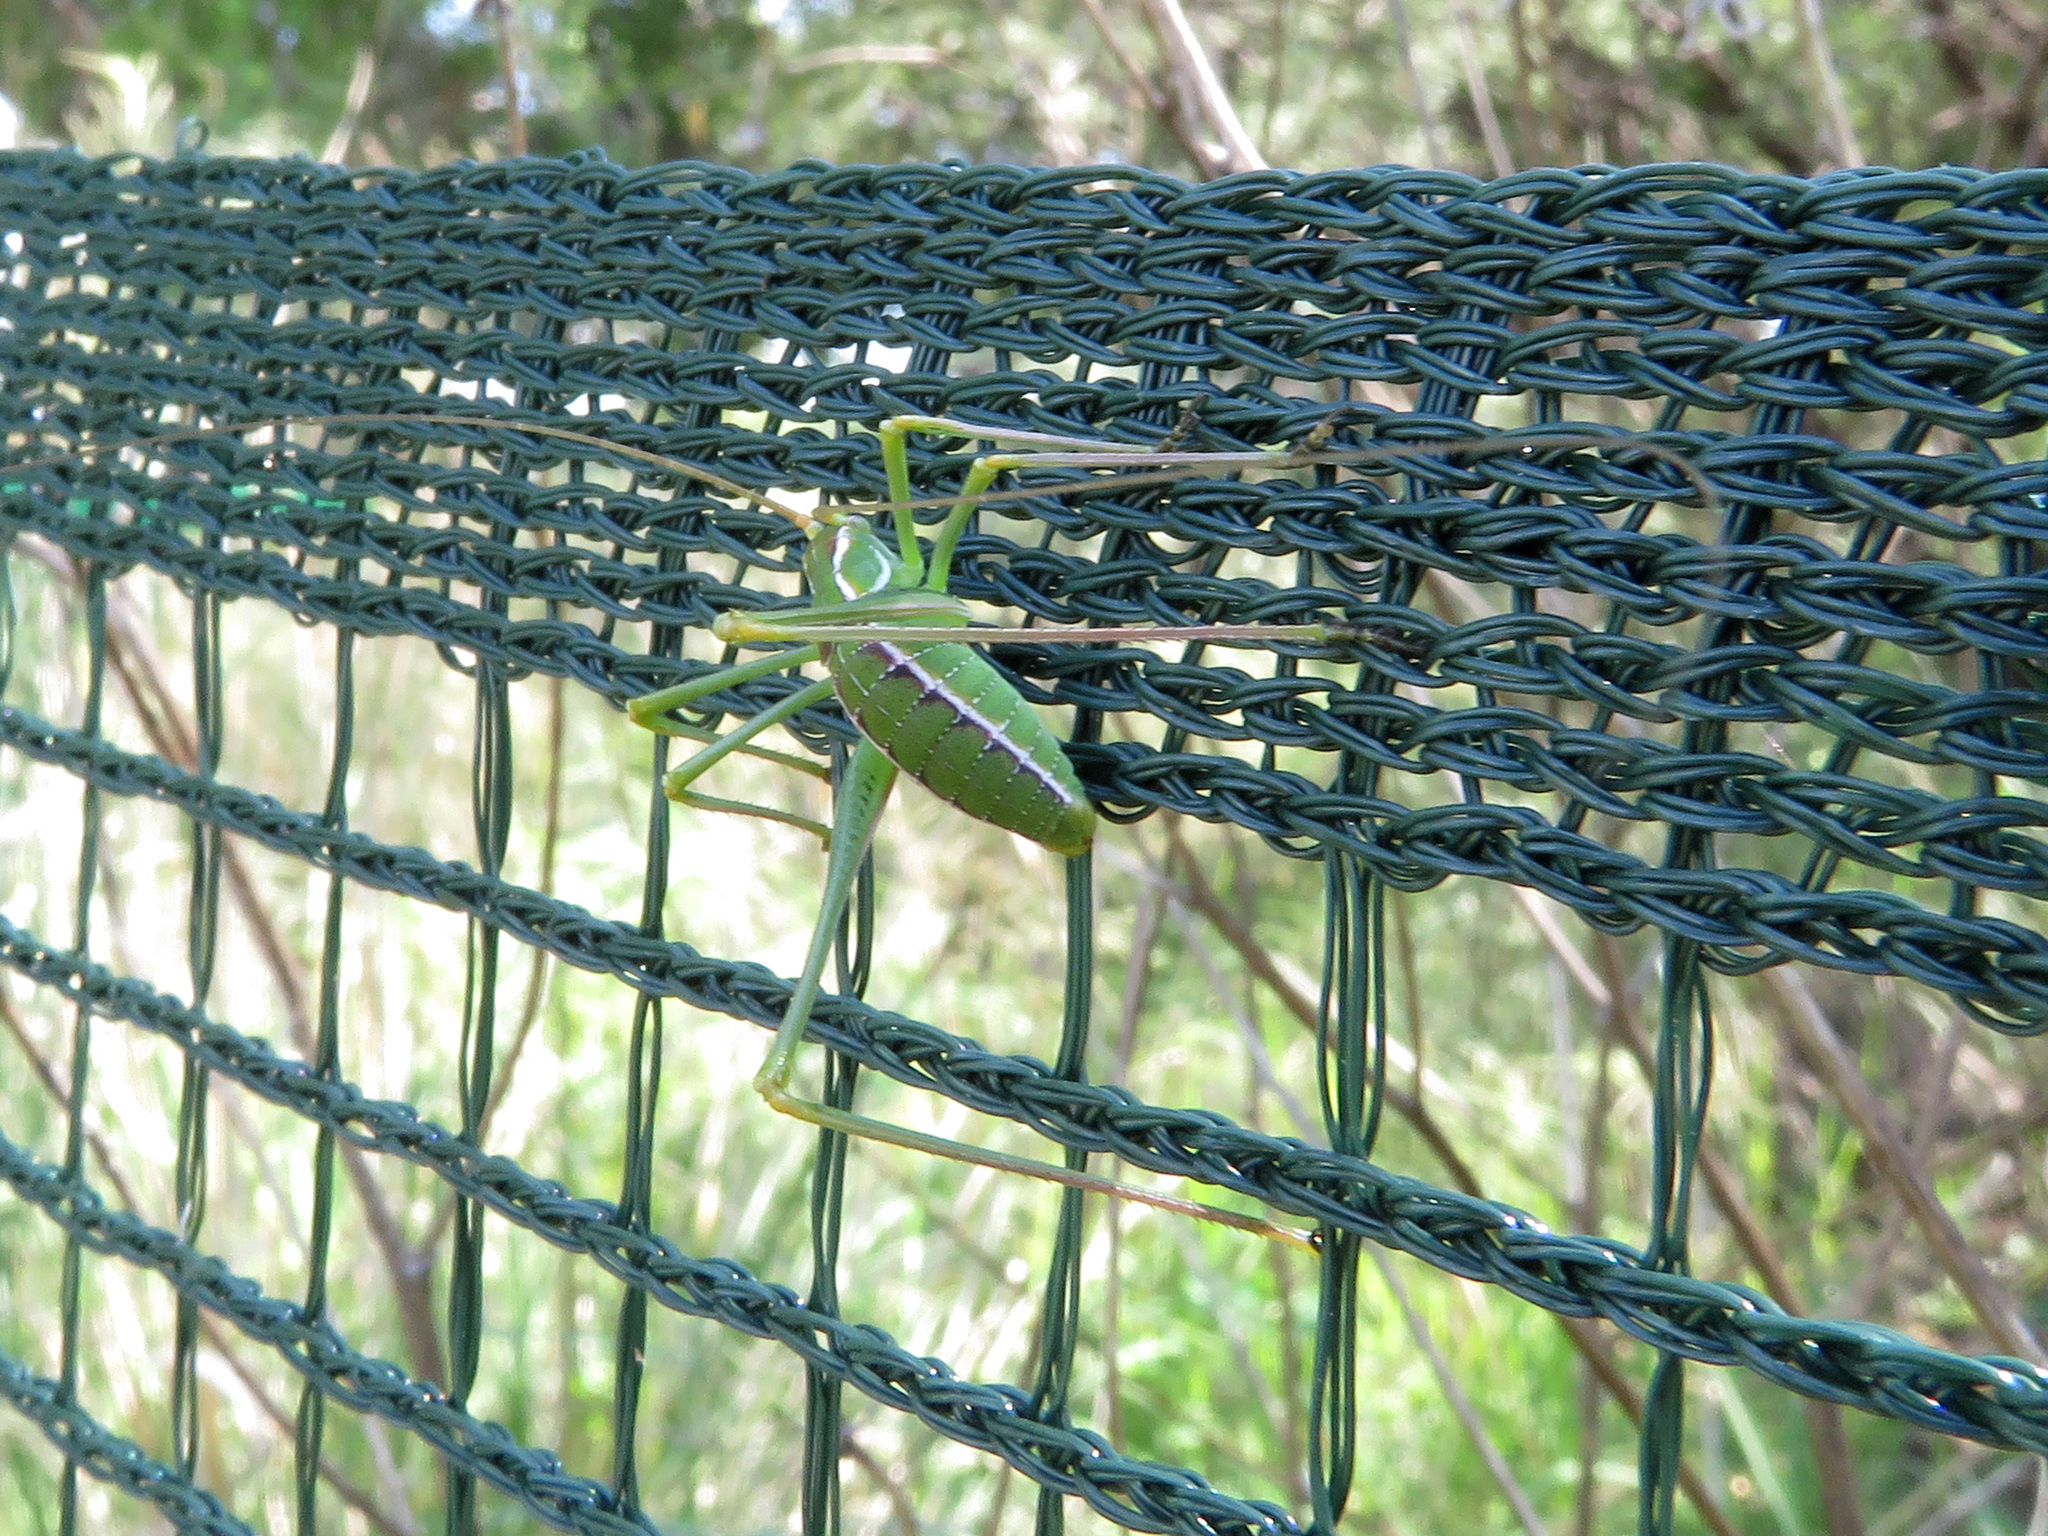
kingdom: Animalia
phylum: Arthropoda
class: Insecta
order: Orthoptera
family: Tettigoniidae
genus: Obolopteryx
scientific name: Obolopteryx brevihastata
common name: Common short-winged katydid
